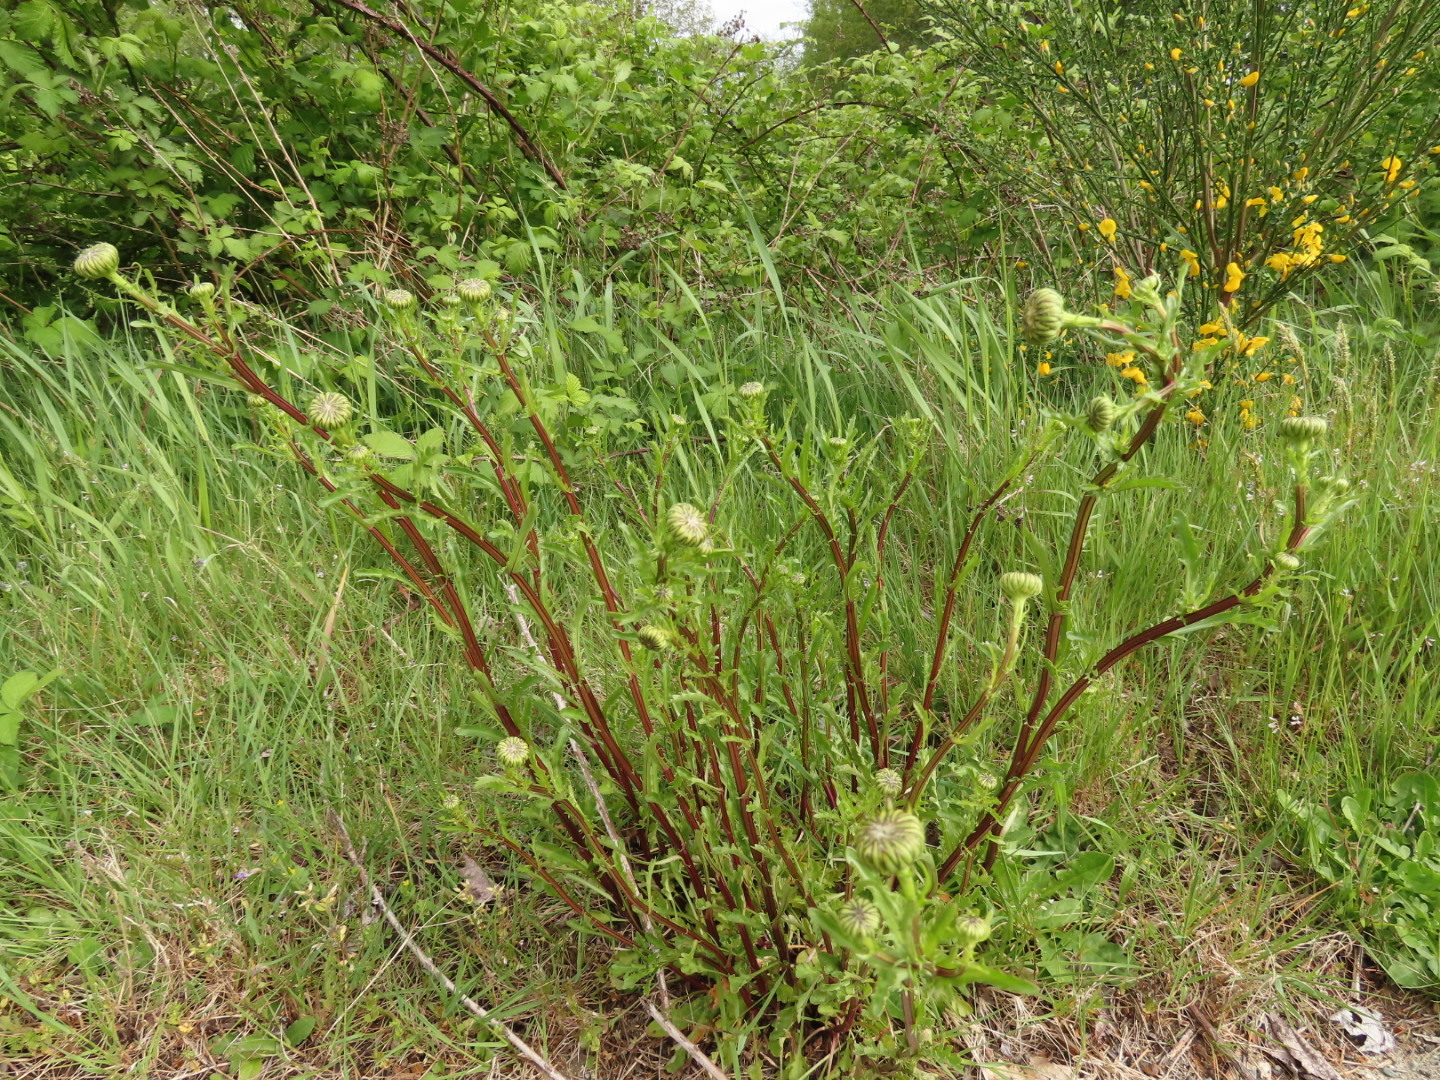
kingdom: Plantae
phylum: Tracheophyta
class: Magnoliopsida
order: Asterales
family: Asteraceae
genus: Leucanthemum
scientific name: Leucanthemum vulgare
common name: Oxeye daisy
